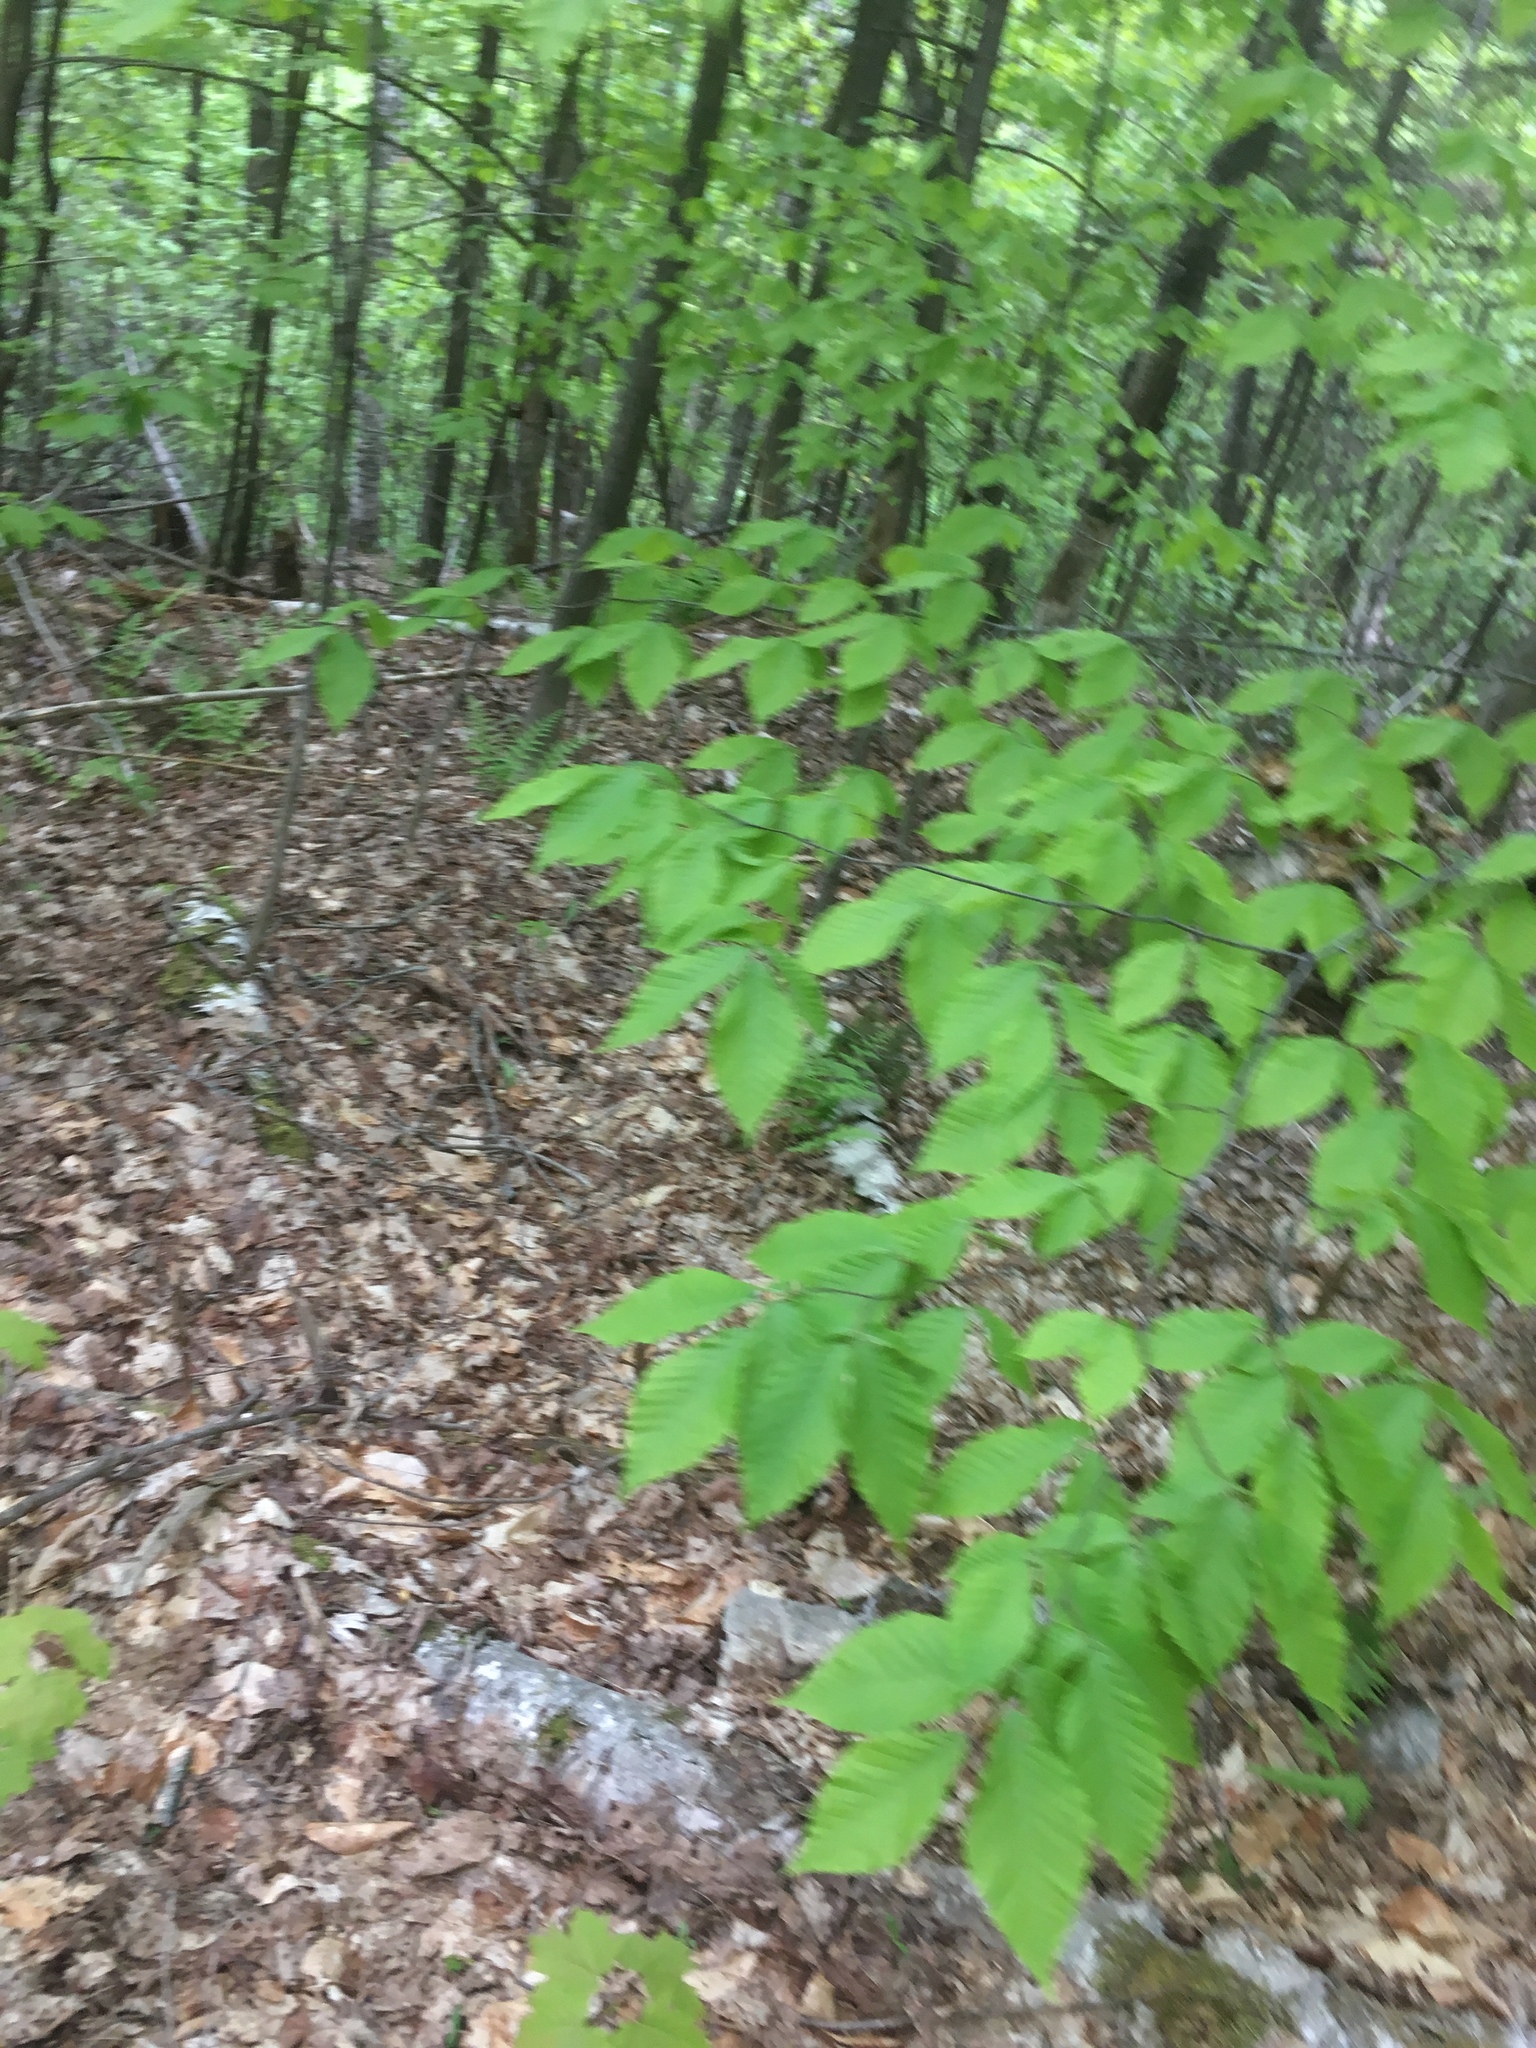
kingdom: Plantae
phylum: Tracheophyta
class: Magnoliopsida
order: Fagales
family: Fagaceae
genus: Fagus
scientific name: Fagus grandifolia
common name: American beech
